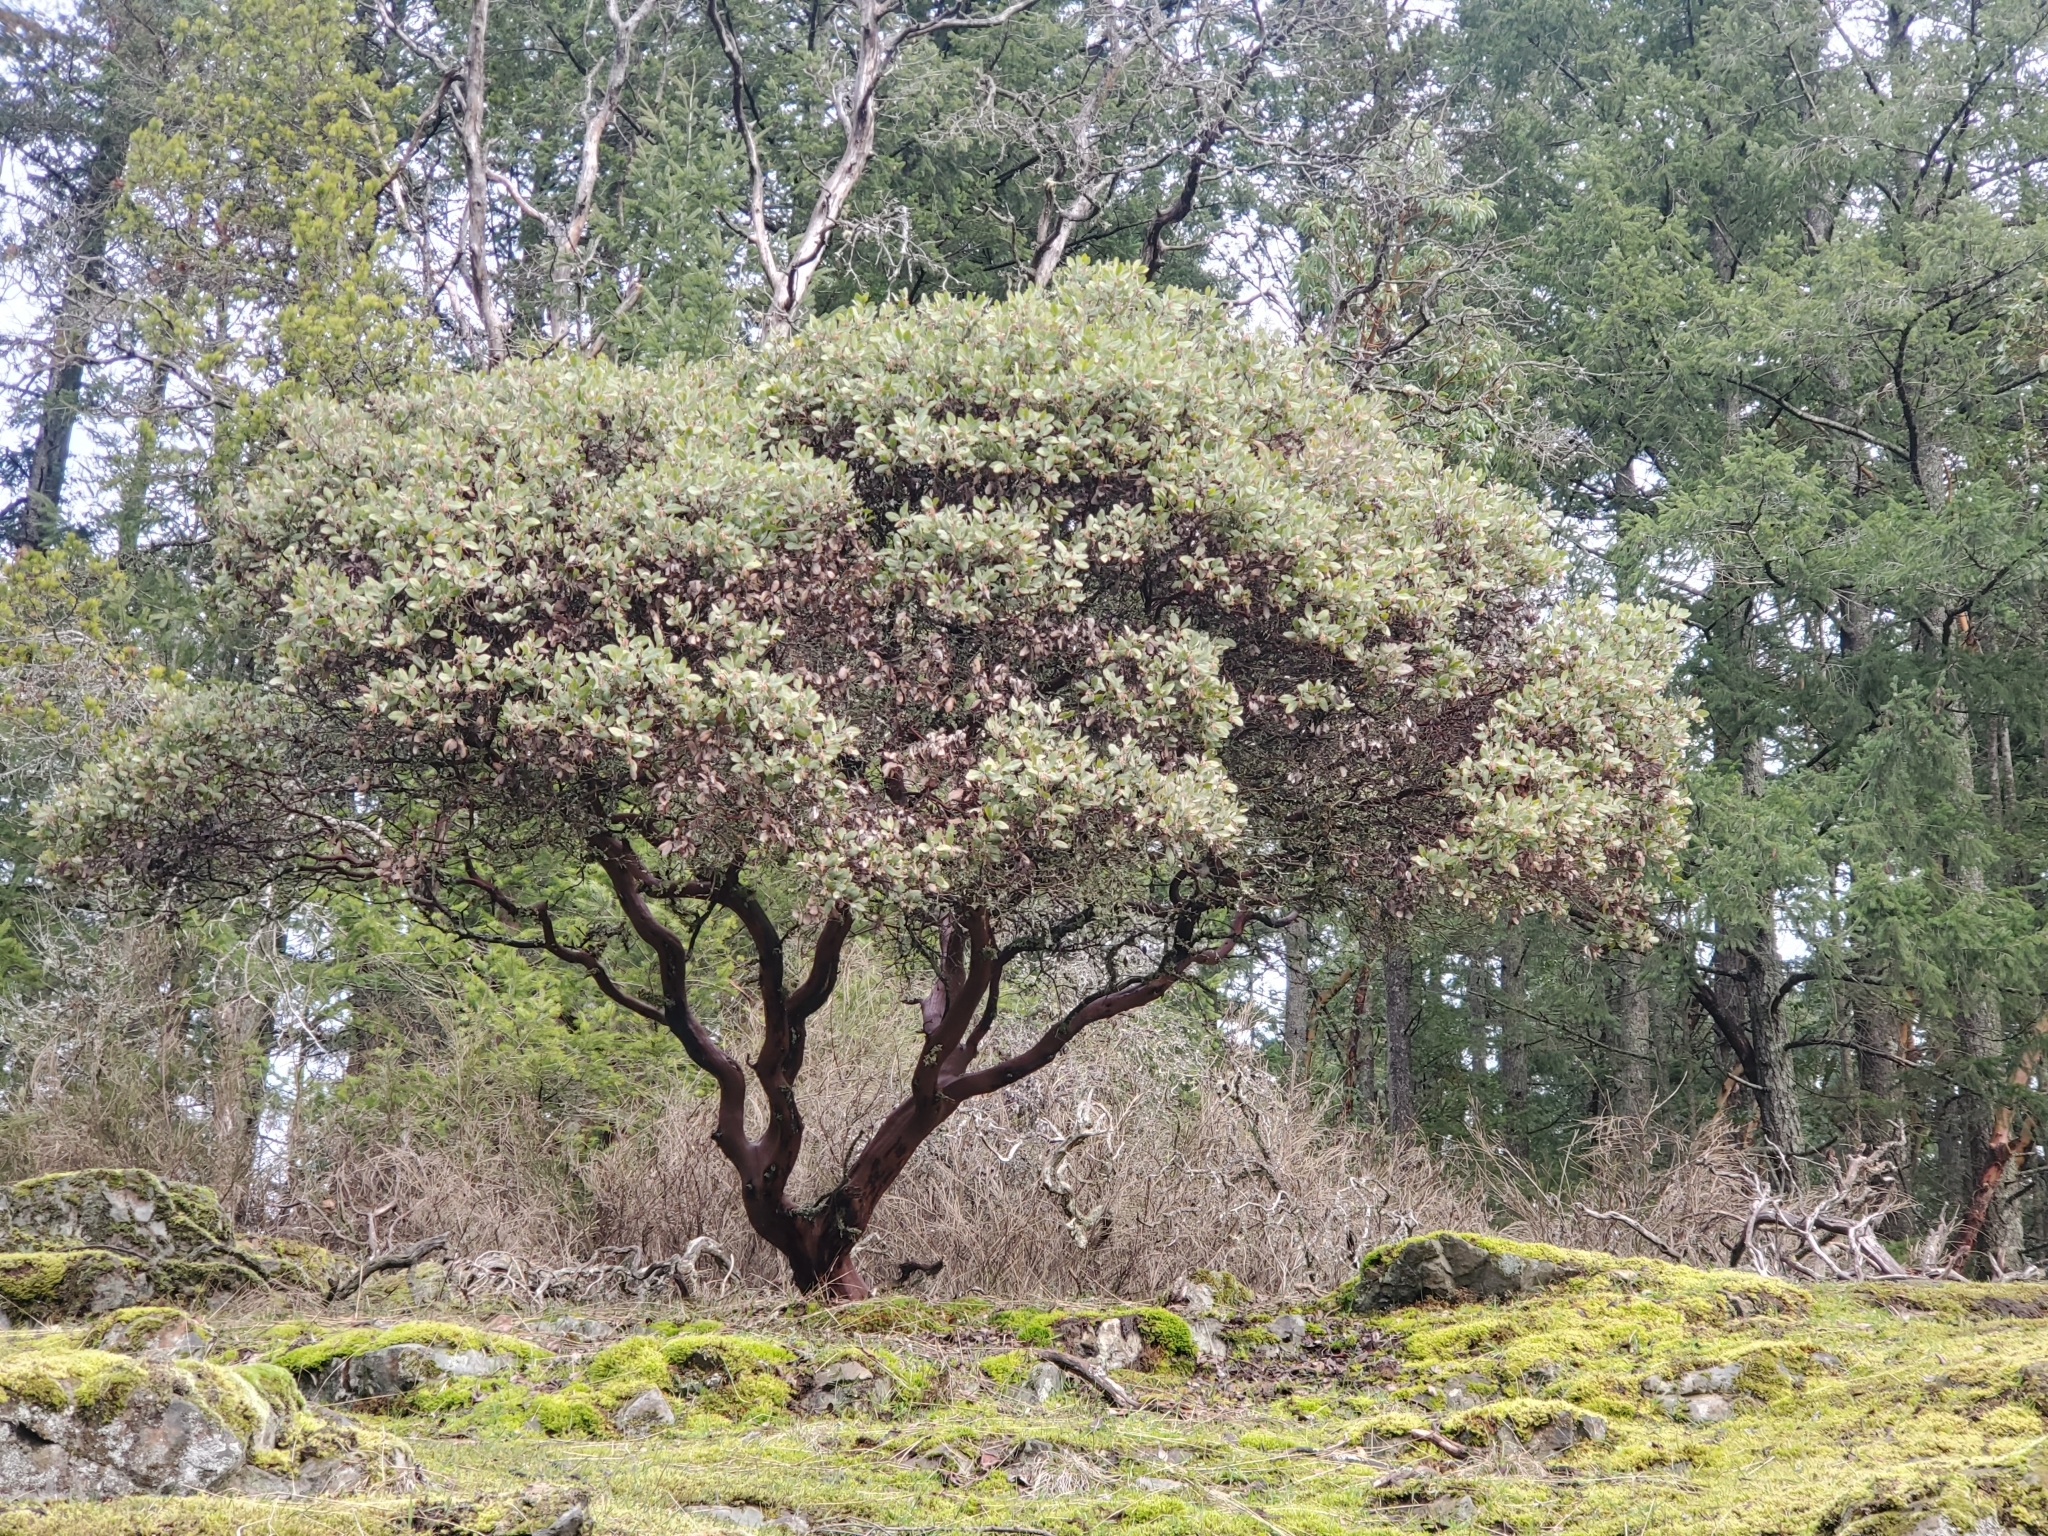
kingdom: Plantae
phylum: Tracheophyta
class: Magnoliopsida
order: Ericales
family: Ericaceae
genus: Arctostaphylos
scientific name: Arctostaphylos columbiana
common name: Bristly bearberry
